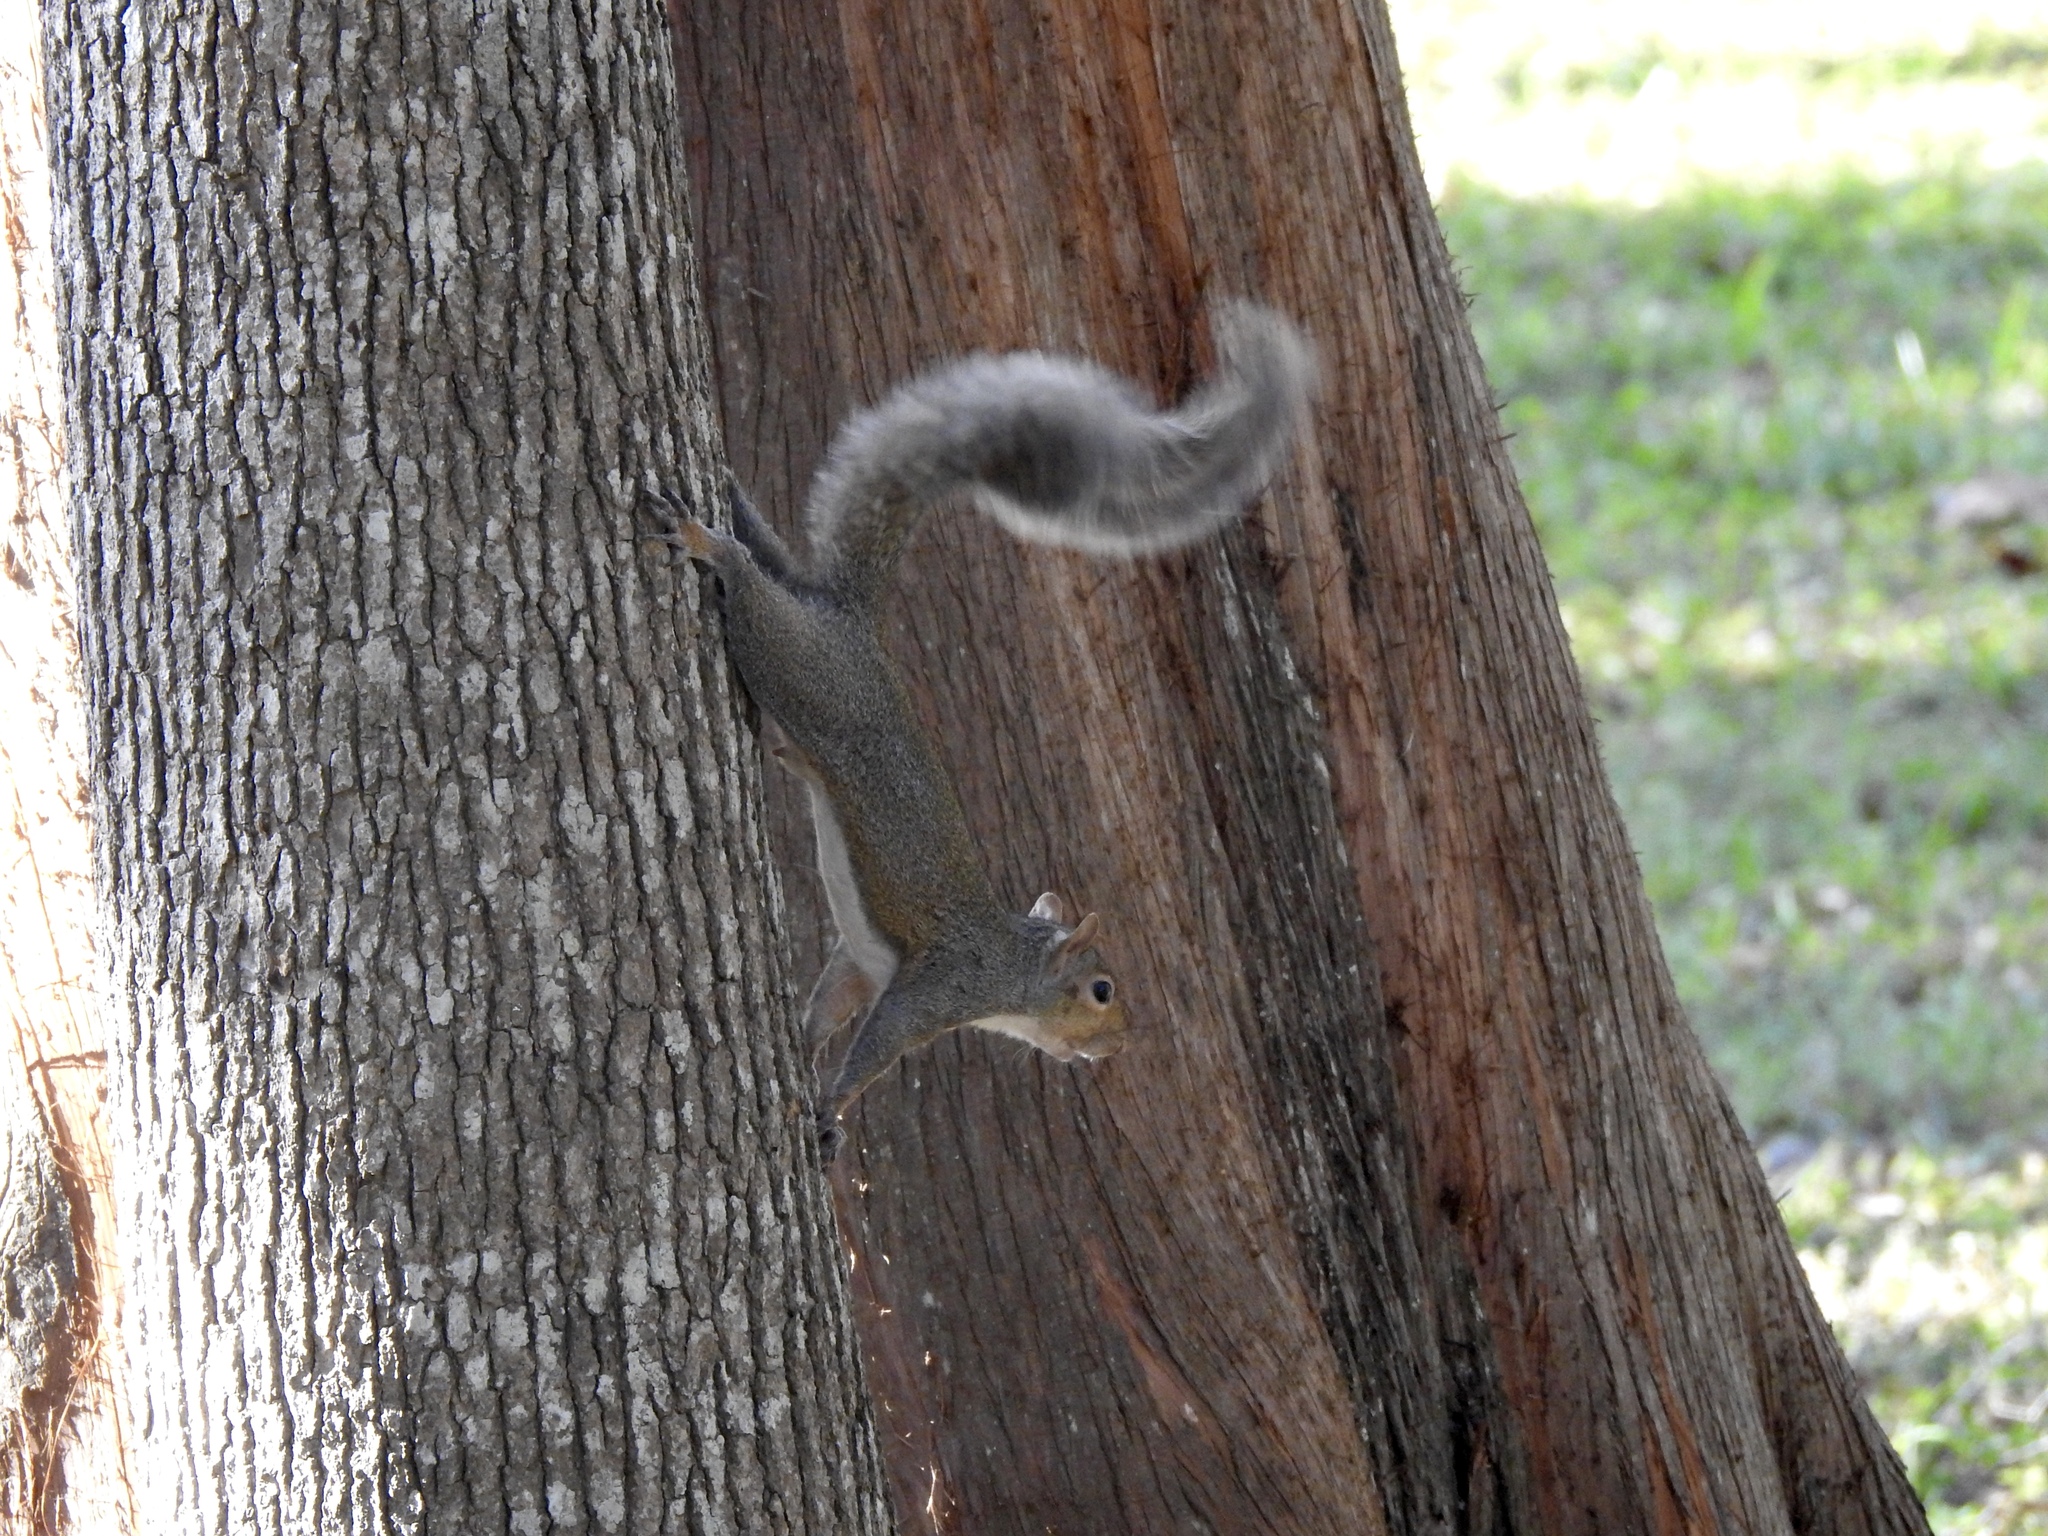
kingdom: Animalia
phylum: Chordata
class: Mammalia
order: Rodentia
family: Sciuridae
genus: Sciurus
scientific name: Sciurus carolinensis
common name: Eastern gray squirrel
